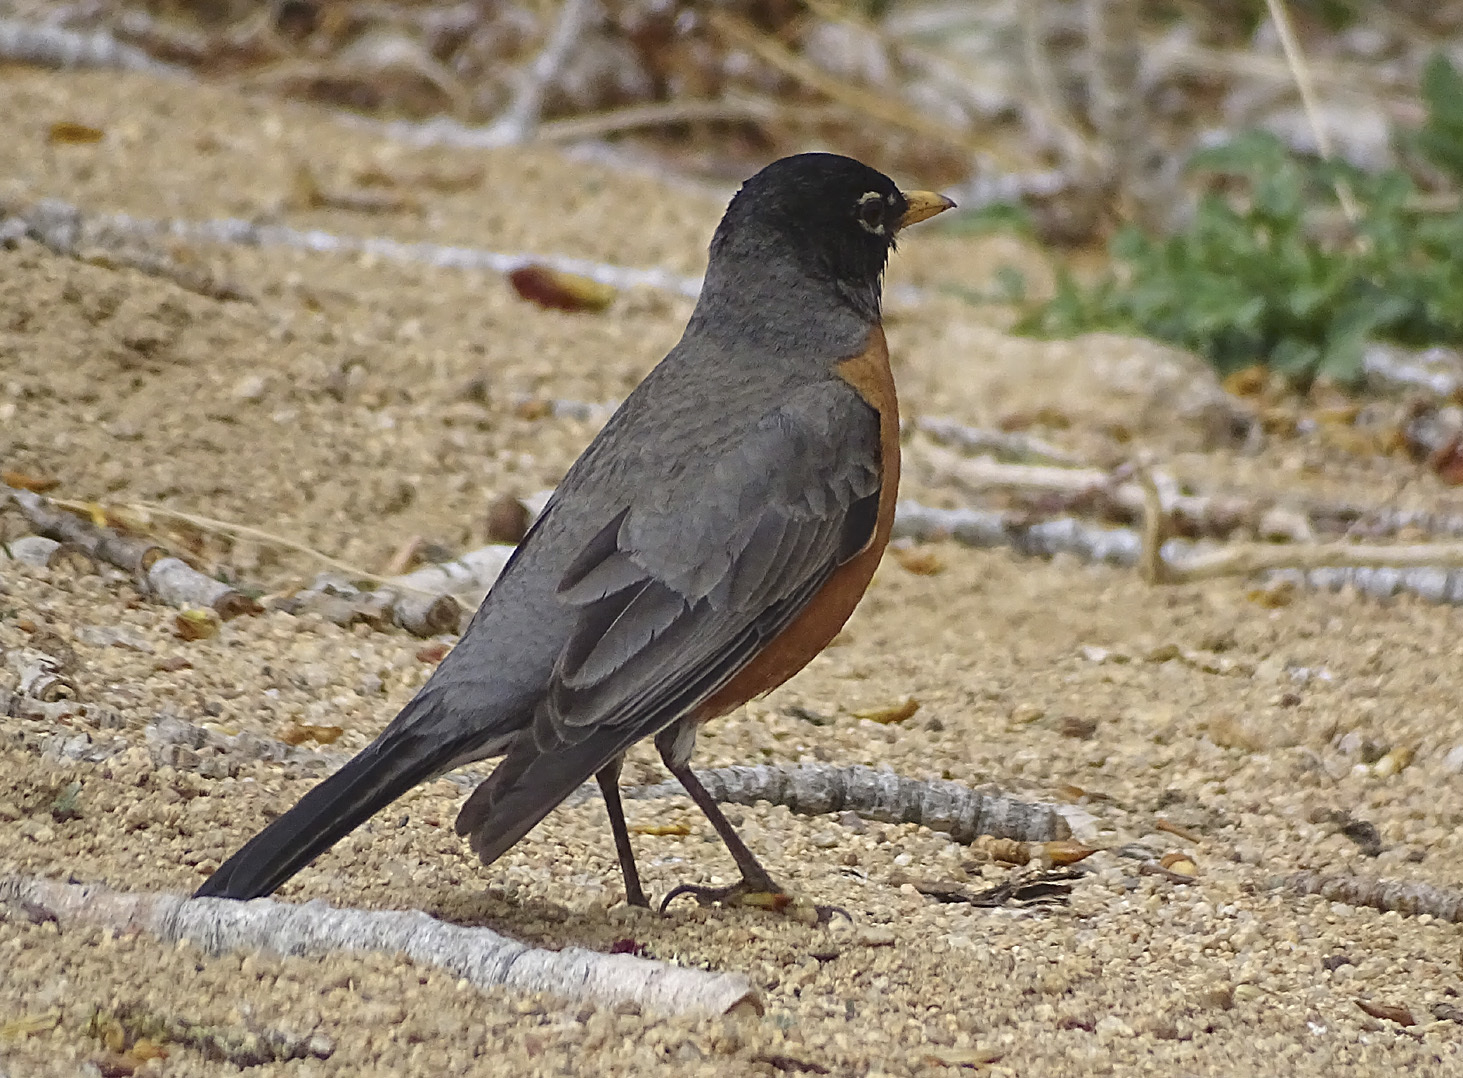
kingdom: Animalia
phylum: Chordata
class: Aves
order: Passeriformes
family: Turdidae
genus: Turdus
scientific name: Turdus migratorius
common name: American robin
